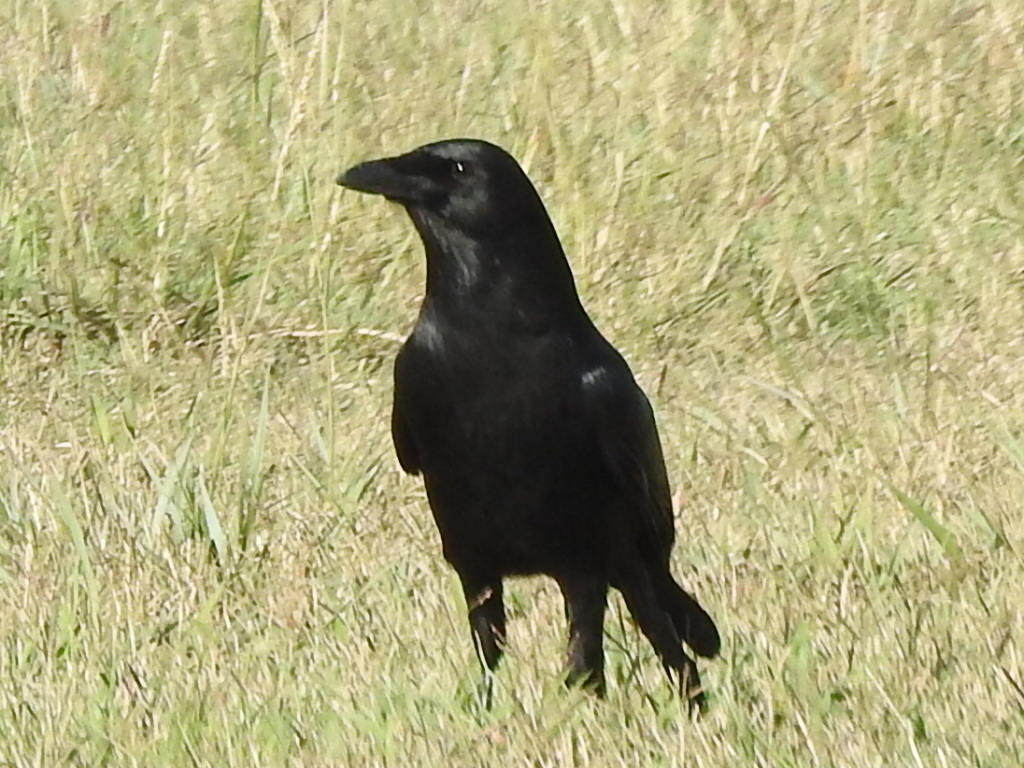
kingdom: Animalia
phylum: Chordata
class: Aves
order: Passeriformes
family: Corvidae
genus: Corvus
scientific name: Corvus brachyrhynchos
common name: American crow
